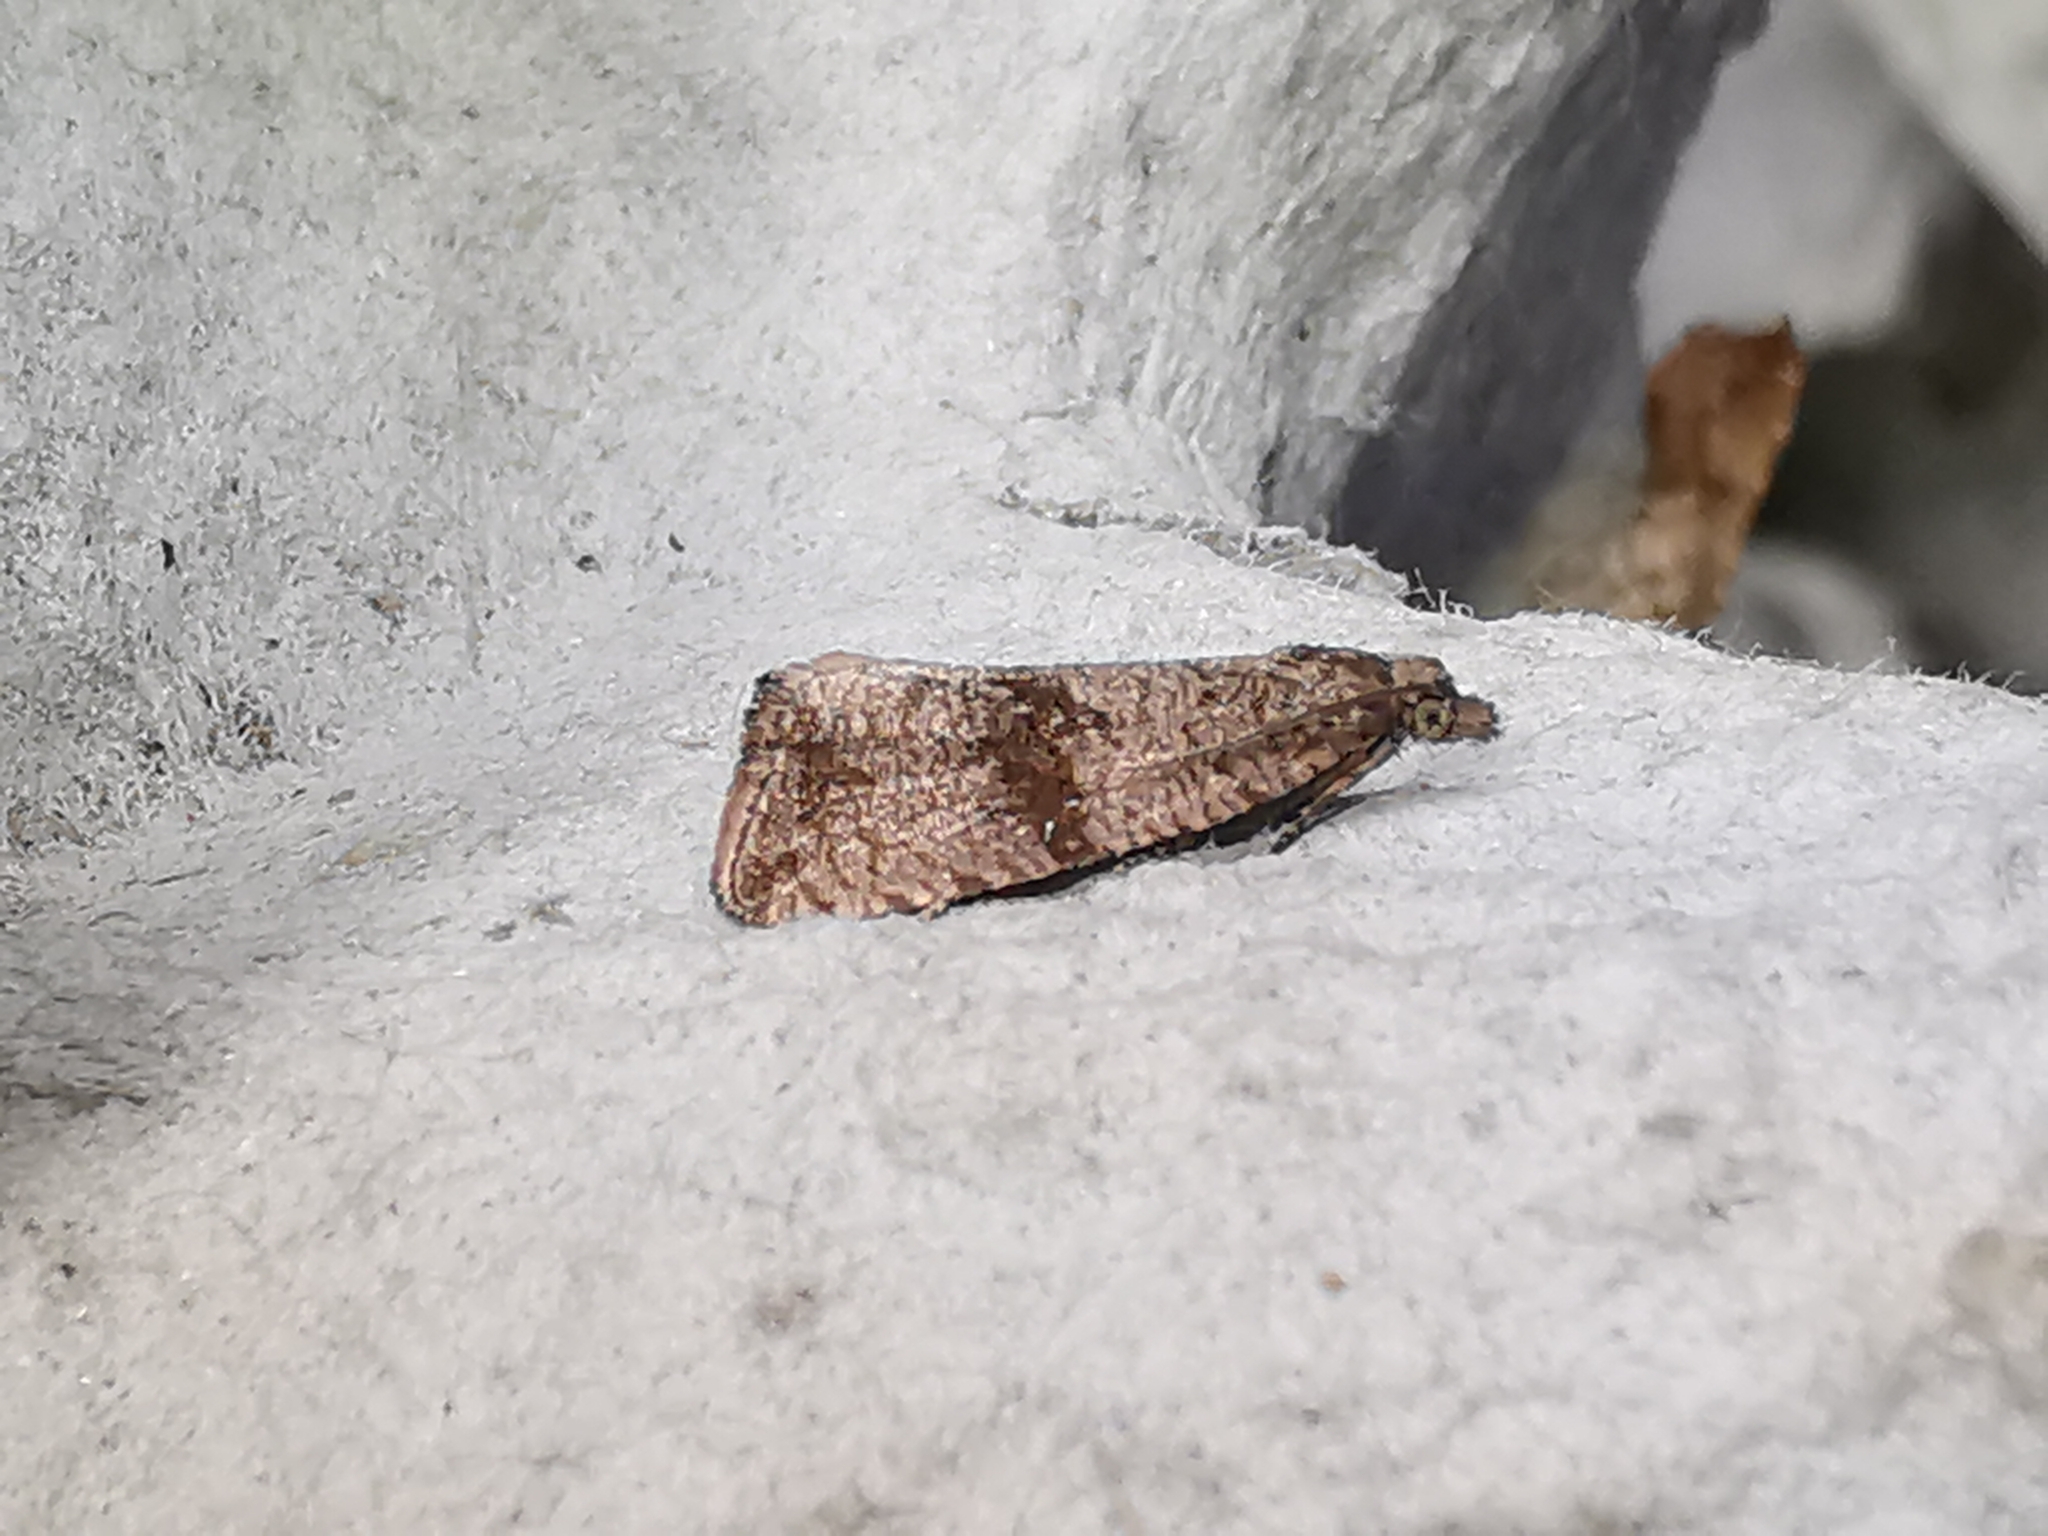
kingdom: Animalia
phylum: Arthropoda
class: Insecta
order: Lepidoptera
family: Tortricidae
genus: Celypha
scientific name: Celypha striana
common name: Barred marble
